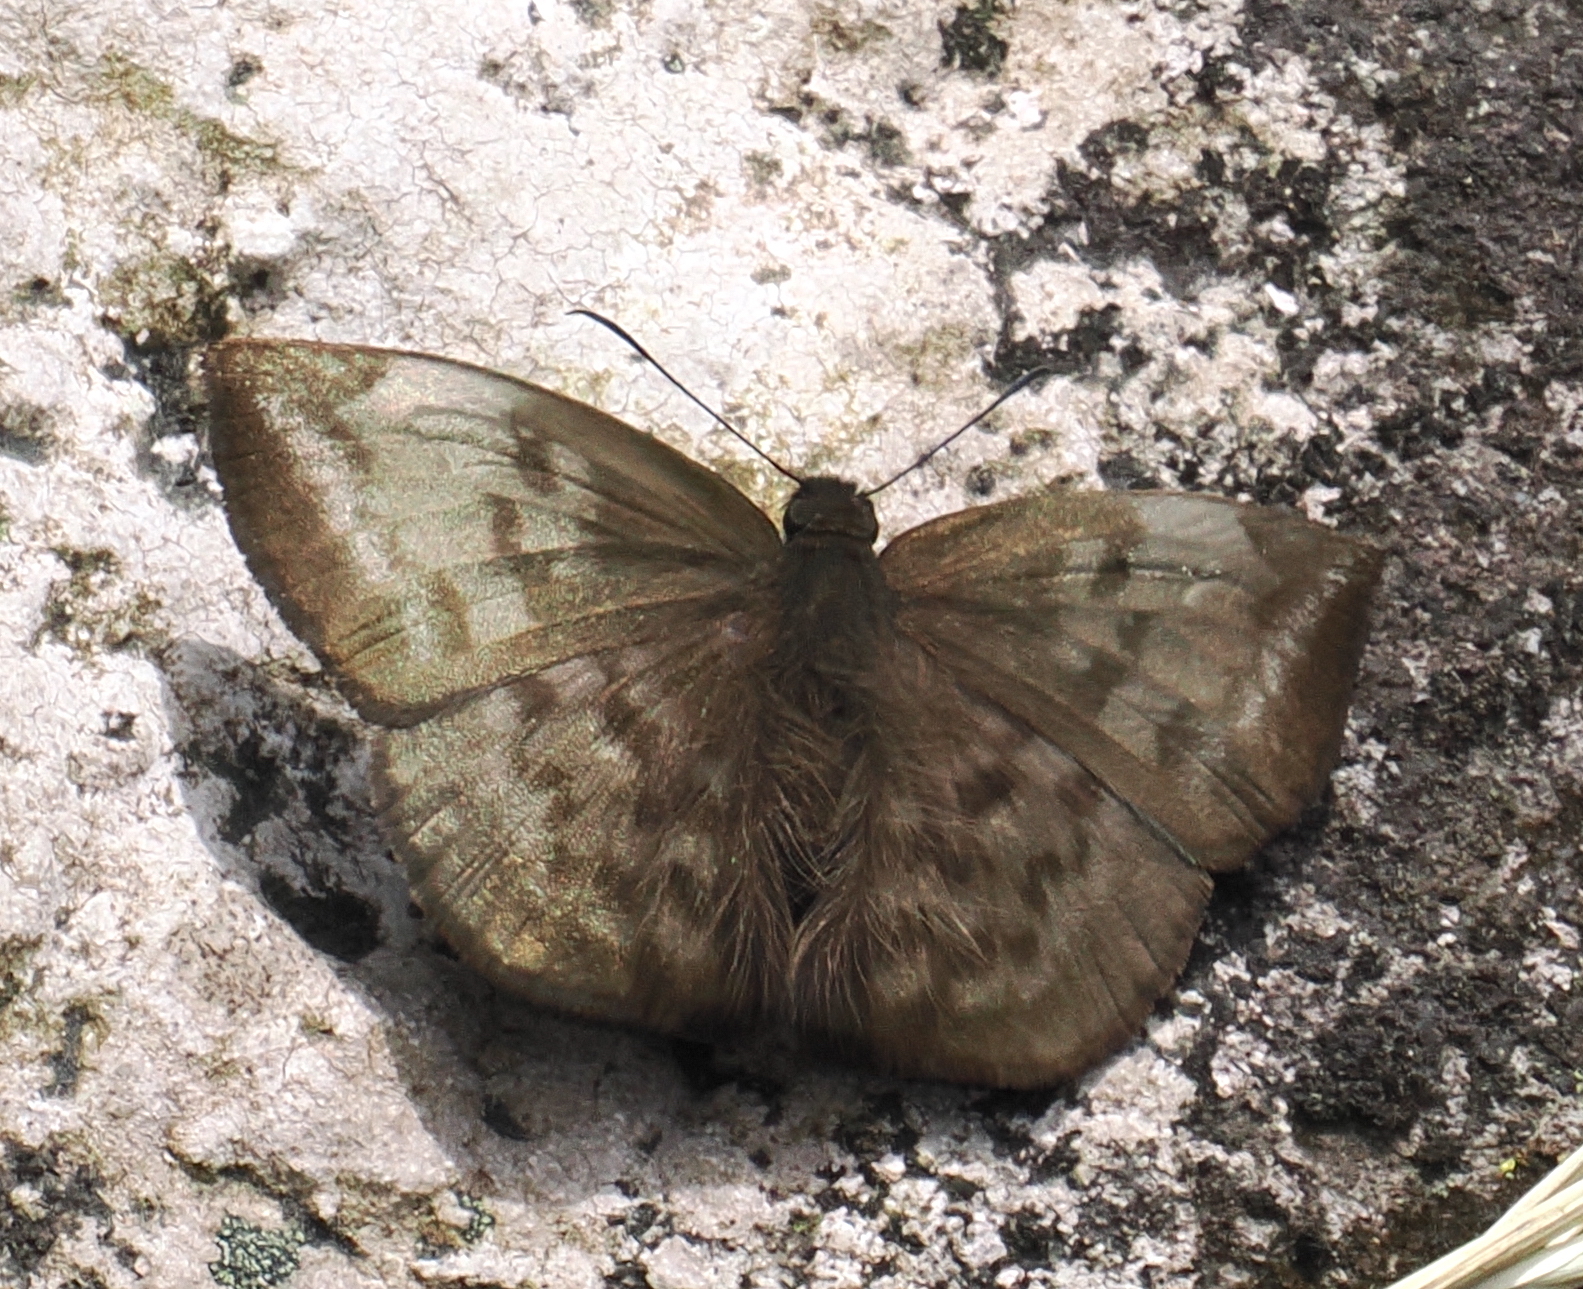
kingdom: Animalia
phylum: Arthropoda
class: Insecta
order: Lepidoptera
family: Hesperiidae
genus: Achlyodes
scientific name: Achlyodes pallida
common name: Pale sicklewing
